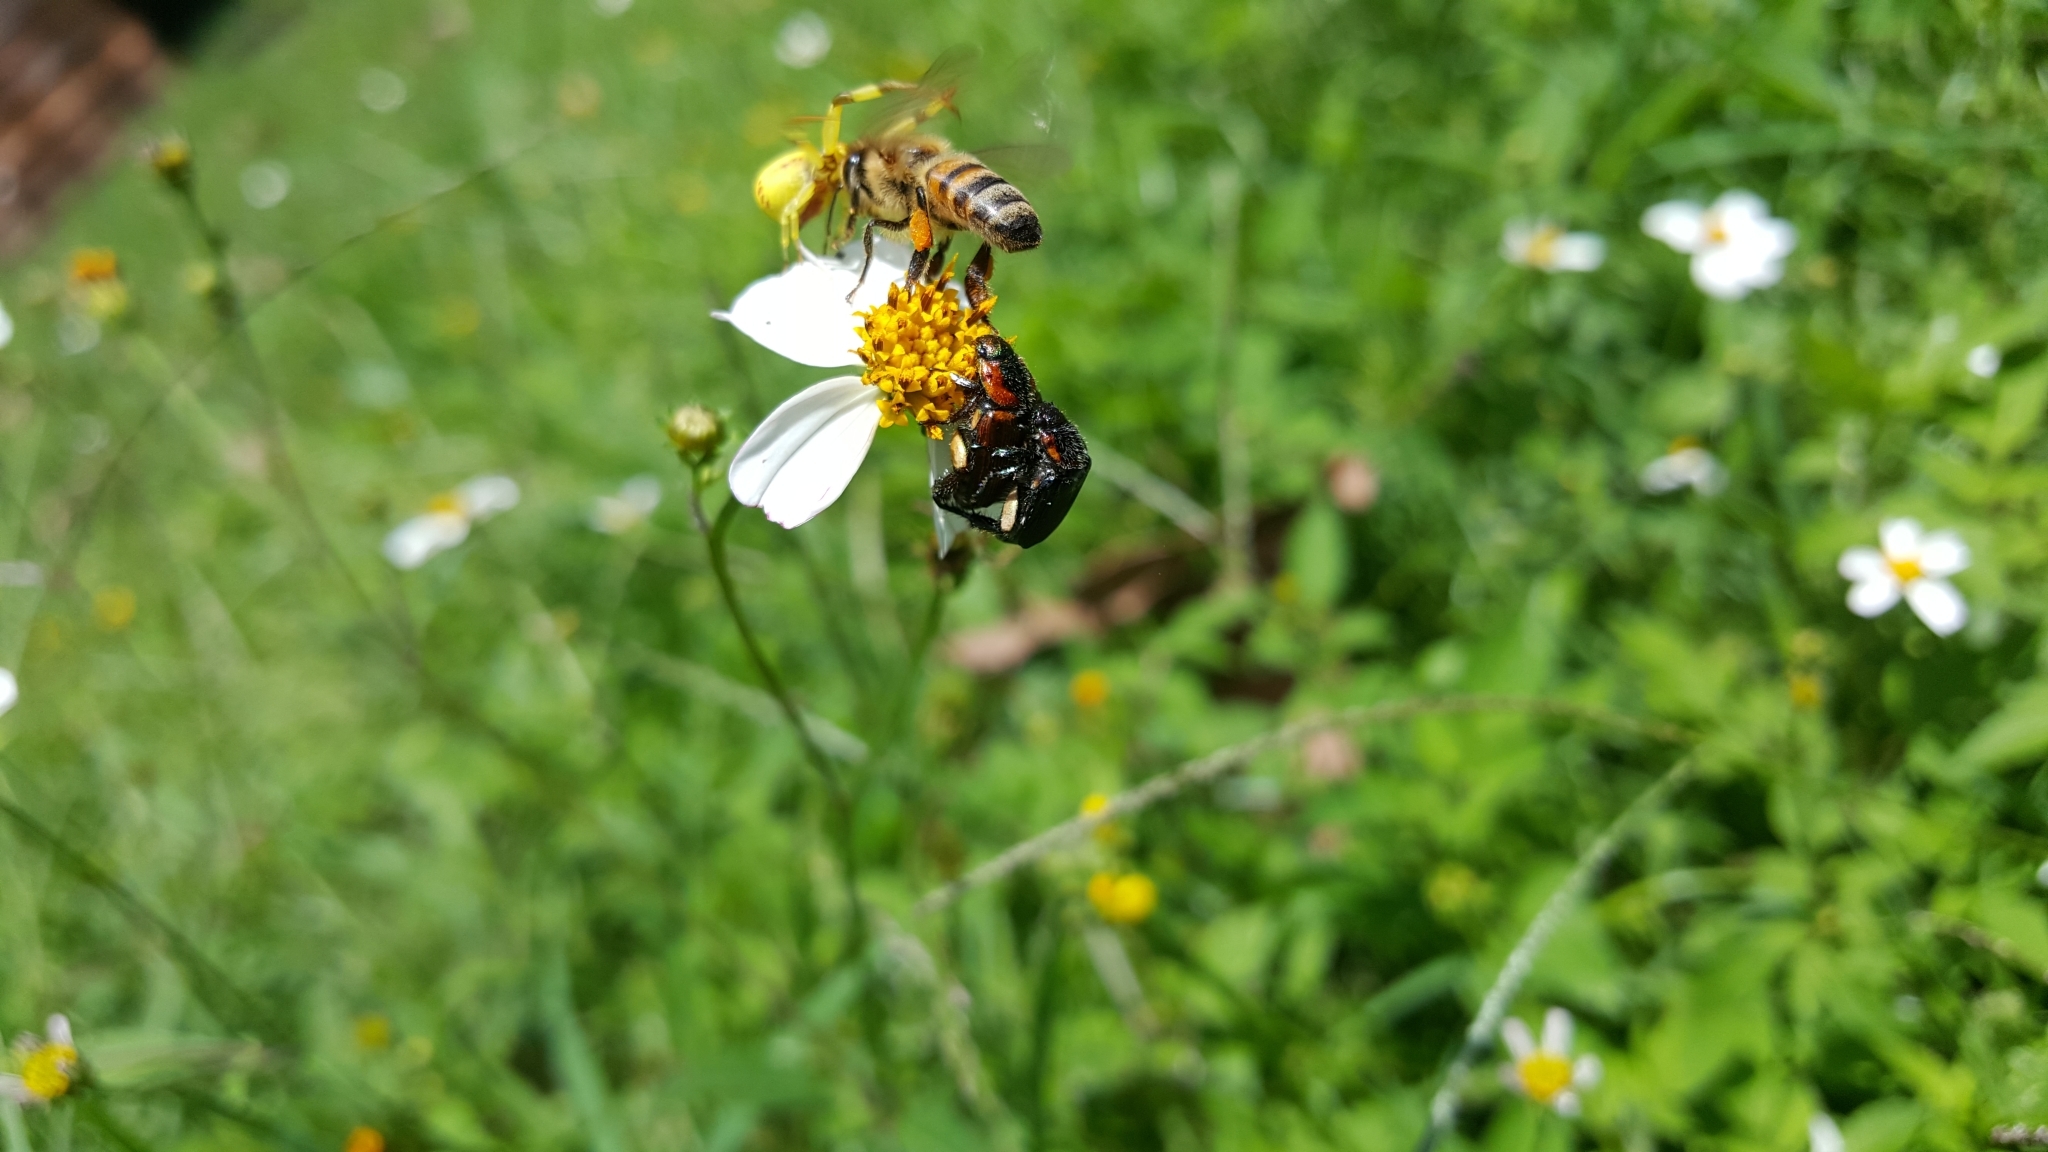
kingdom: Animalia
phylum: Arthropoda
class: Insecta
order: Hymenoptera
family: Apidae
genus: Apis
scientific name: Apis mellifera
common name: Honey bee
